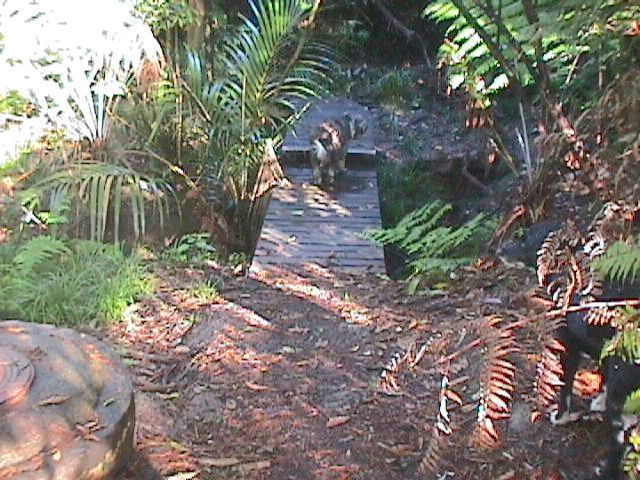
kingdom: Plantae
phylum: Tracheophyta
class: Liliopsida
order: Arecales
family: Arecaceae
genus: Rhopalostylis
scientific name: Rhopalostylis sapida
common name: Feather-duster palm
